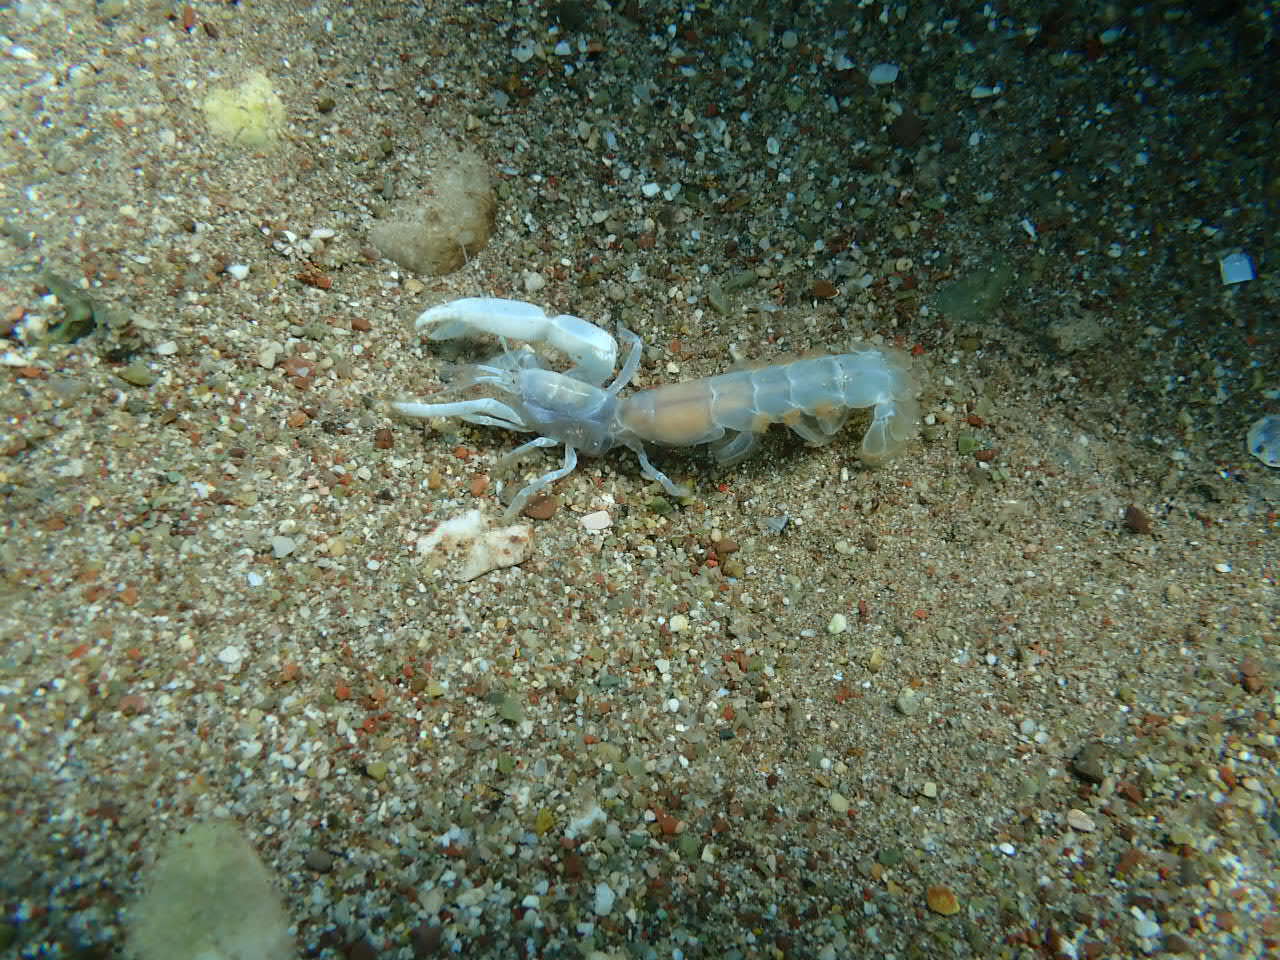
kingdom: Animalia
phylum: Arthropoda
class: Malacostraca
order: Decapoda
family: Callianassidae
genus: Gilvossius
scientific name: Gilvossius tyrrhenus
